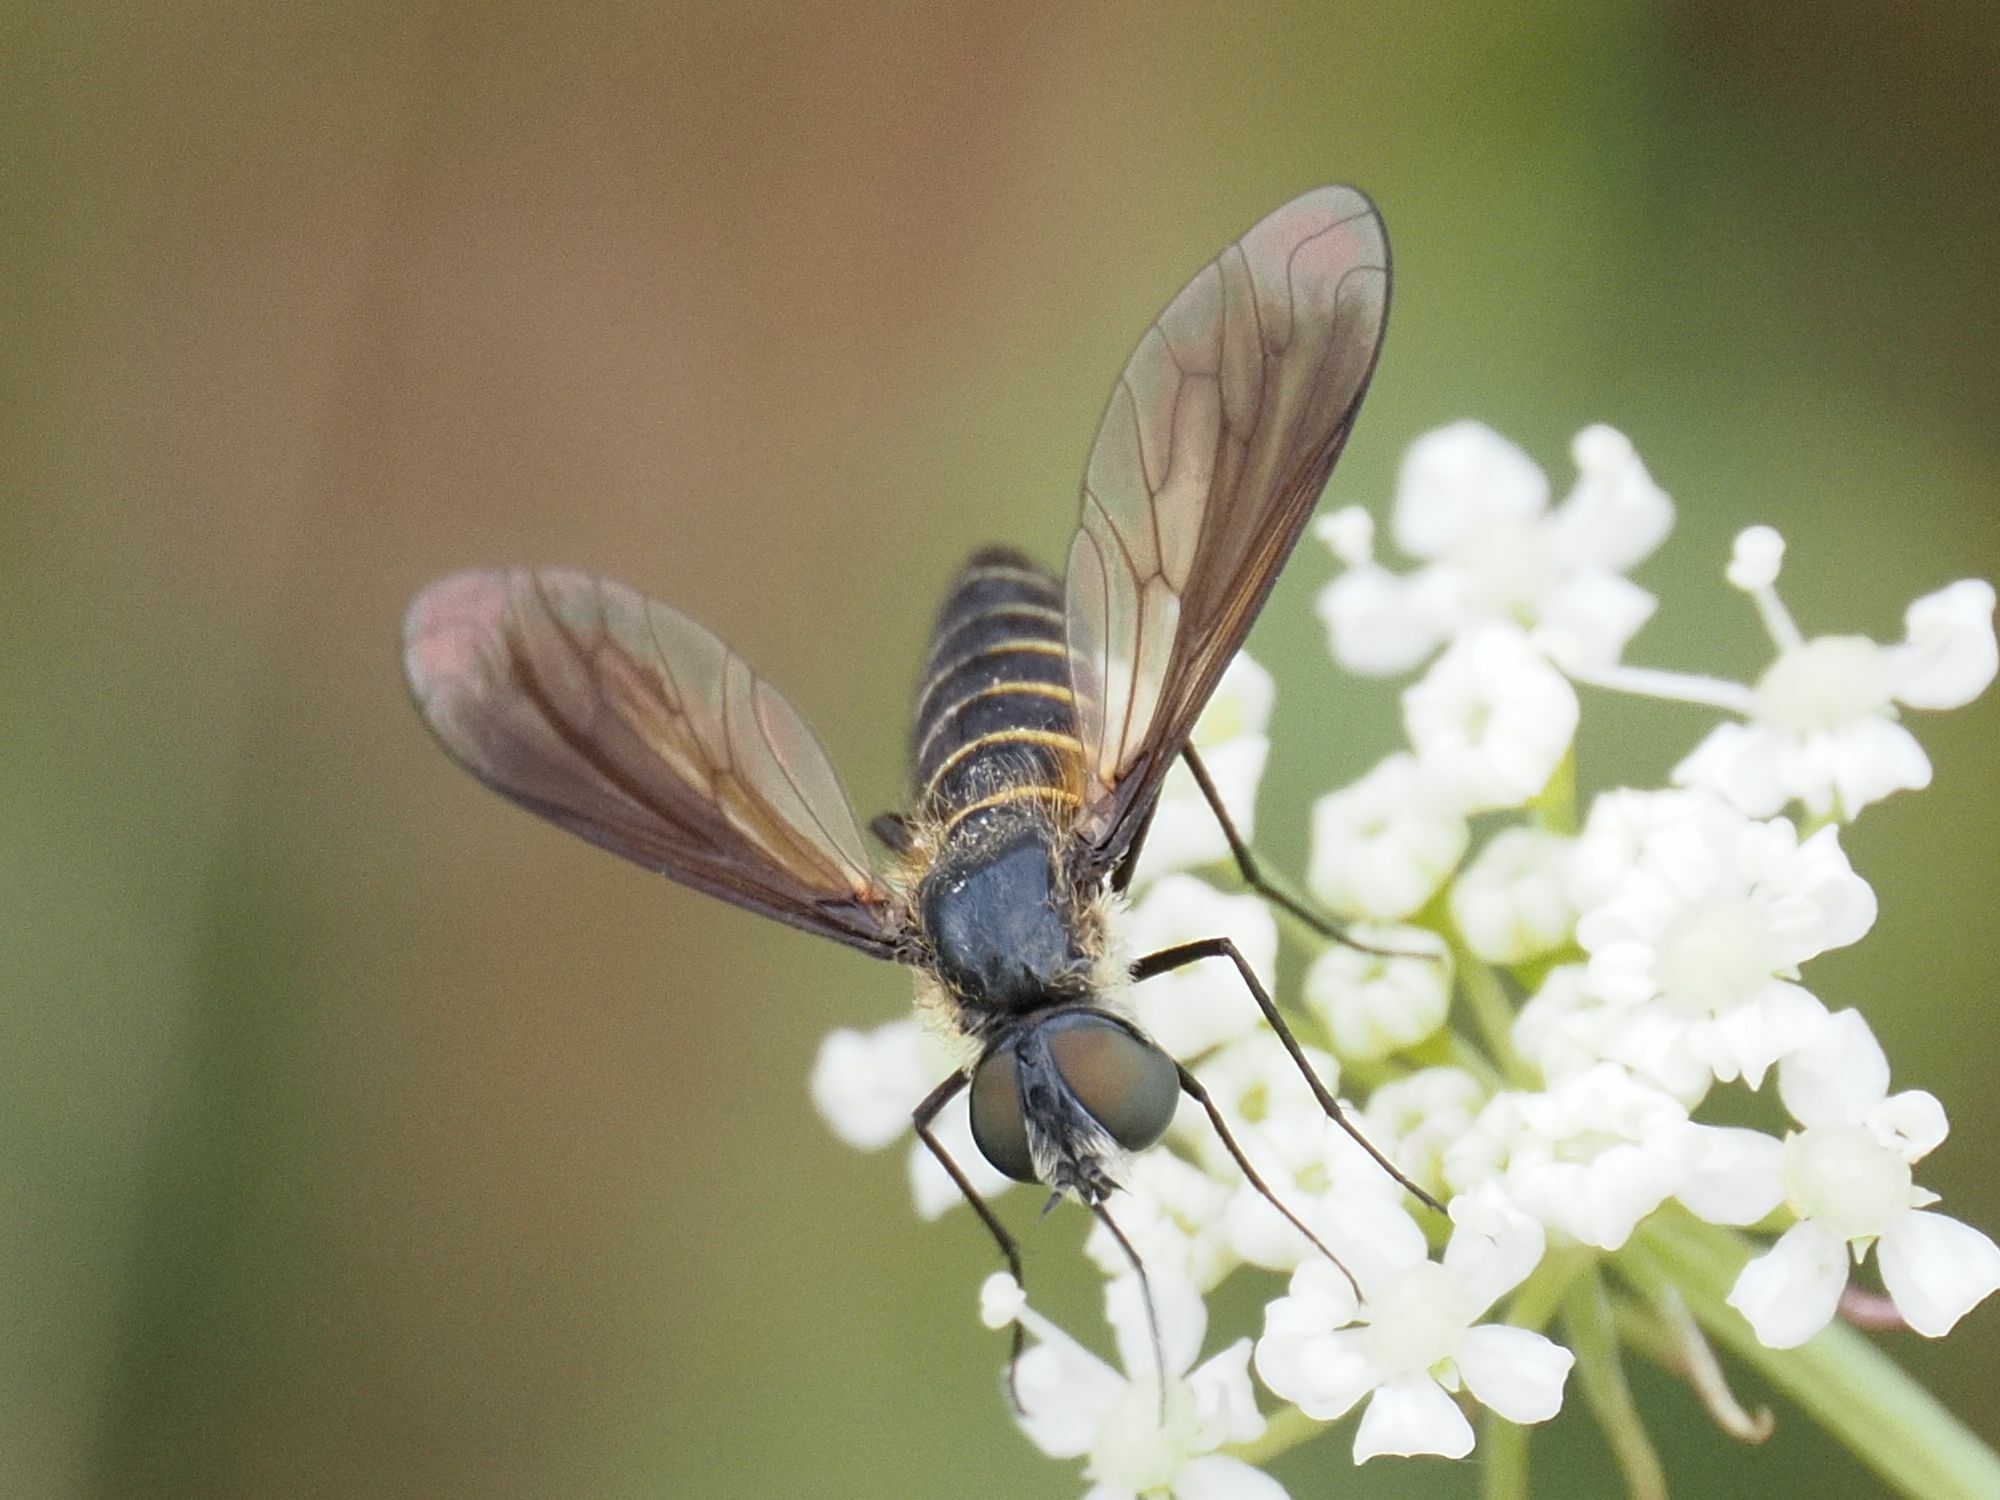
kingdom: Animalia
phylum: Arthropoda
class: Insecta
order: Diptera
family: Bombyliidae
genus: Lomatia
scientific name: Lomatia lateralis
